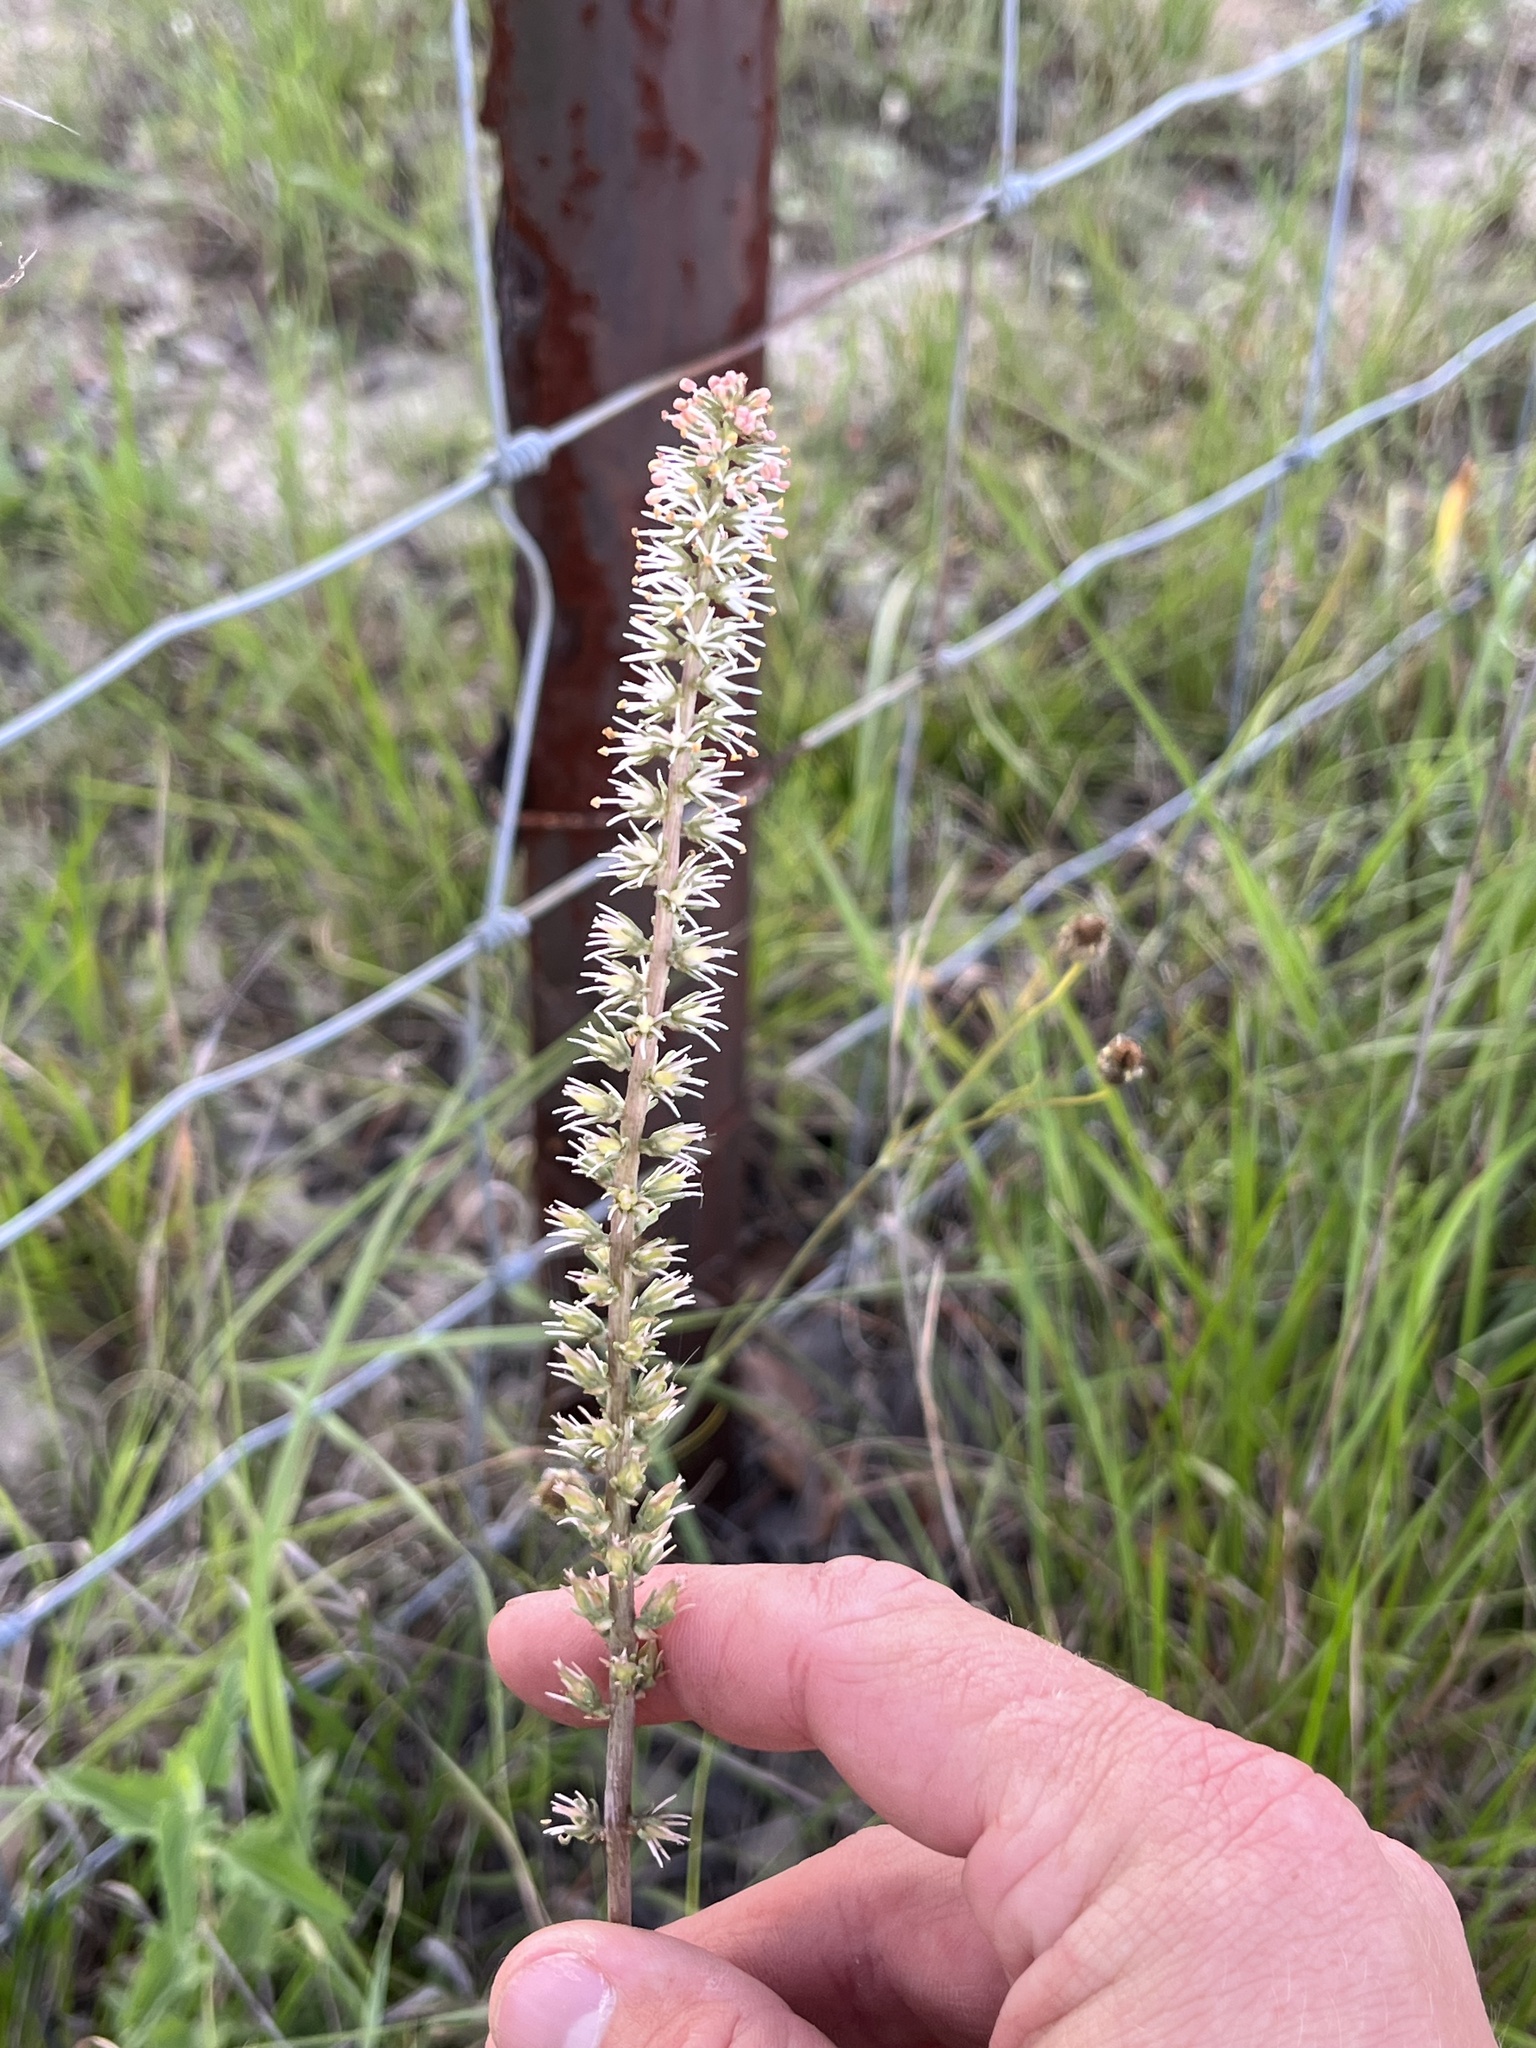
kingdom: Plantae
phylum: Tracheophyta
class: Liliopsida
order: Liliales
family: Melanthiaceae
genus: Schoenocaulon
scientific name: Schoenocaulon texanum
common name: Texas feather-shank
